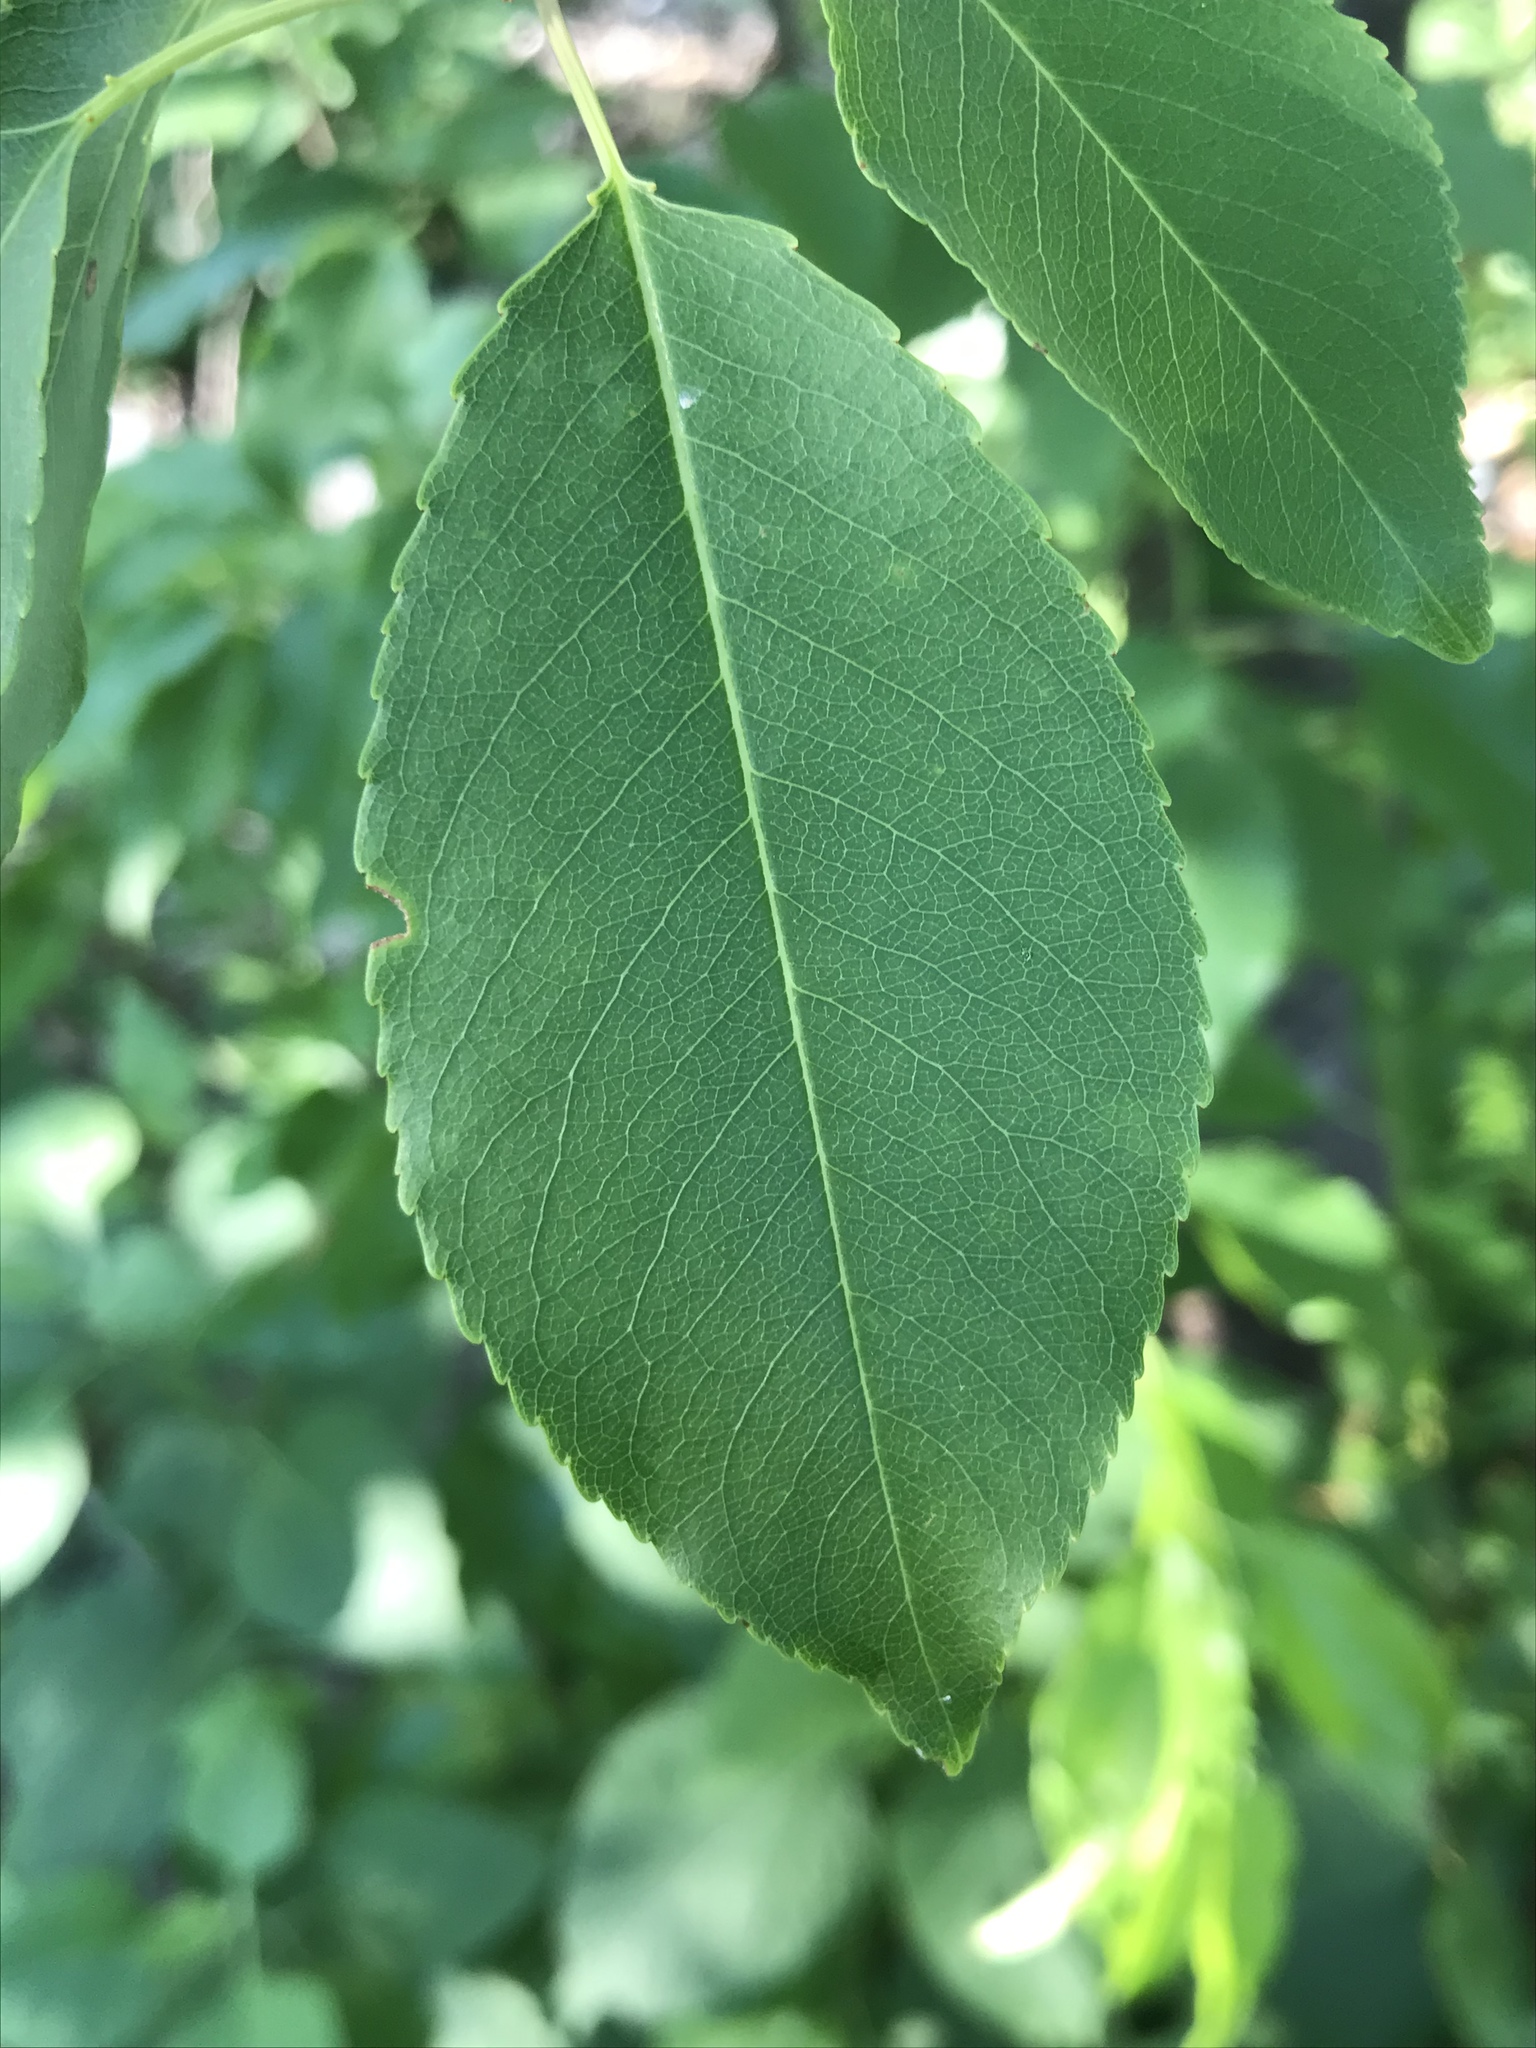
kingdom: Plantae
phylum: Tracheophyta
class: Magnoliopsida
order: Rosales
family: Rosaceae
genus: Prunus
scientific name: Prunus serotina
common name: Black cherry
